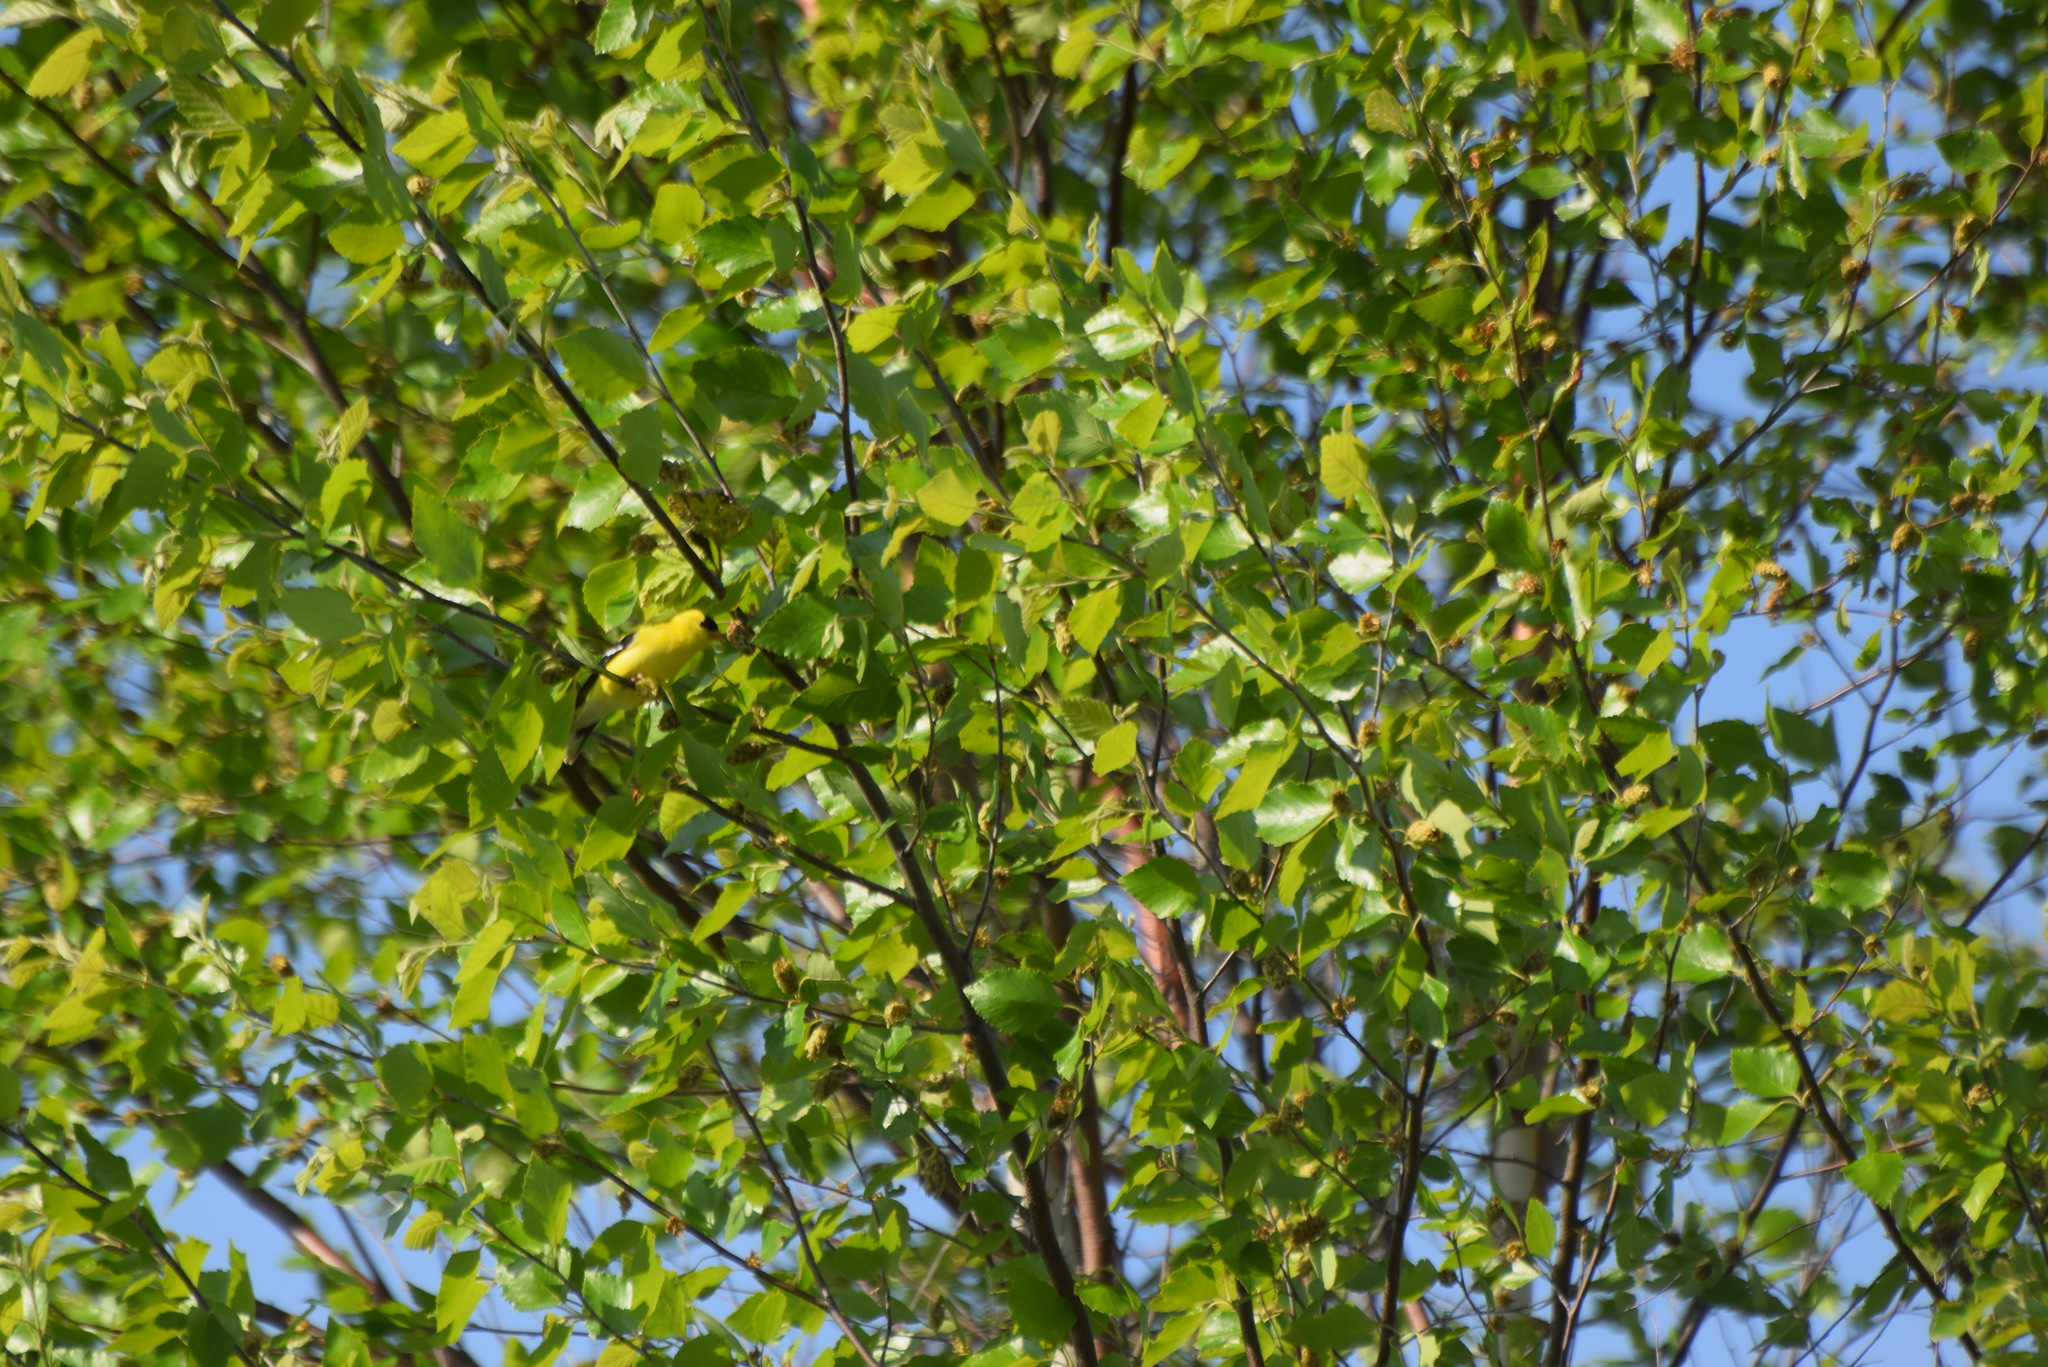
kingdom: Animalia
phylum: Chordata
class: Aves
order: Passeriformes
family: Fringillidae
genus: Spinus
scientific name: Spinus tristis
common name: American goldfinch
